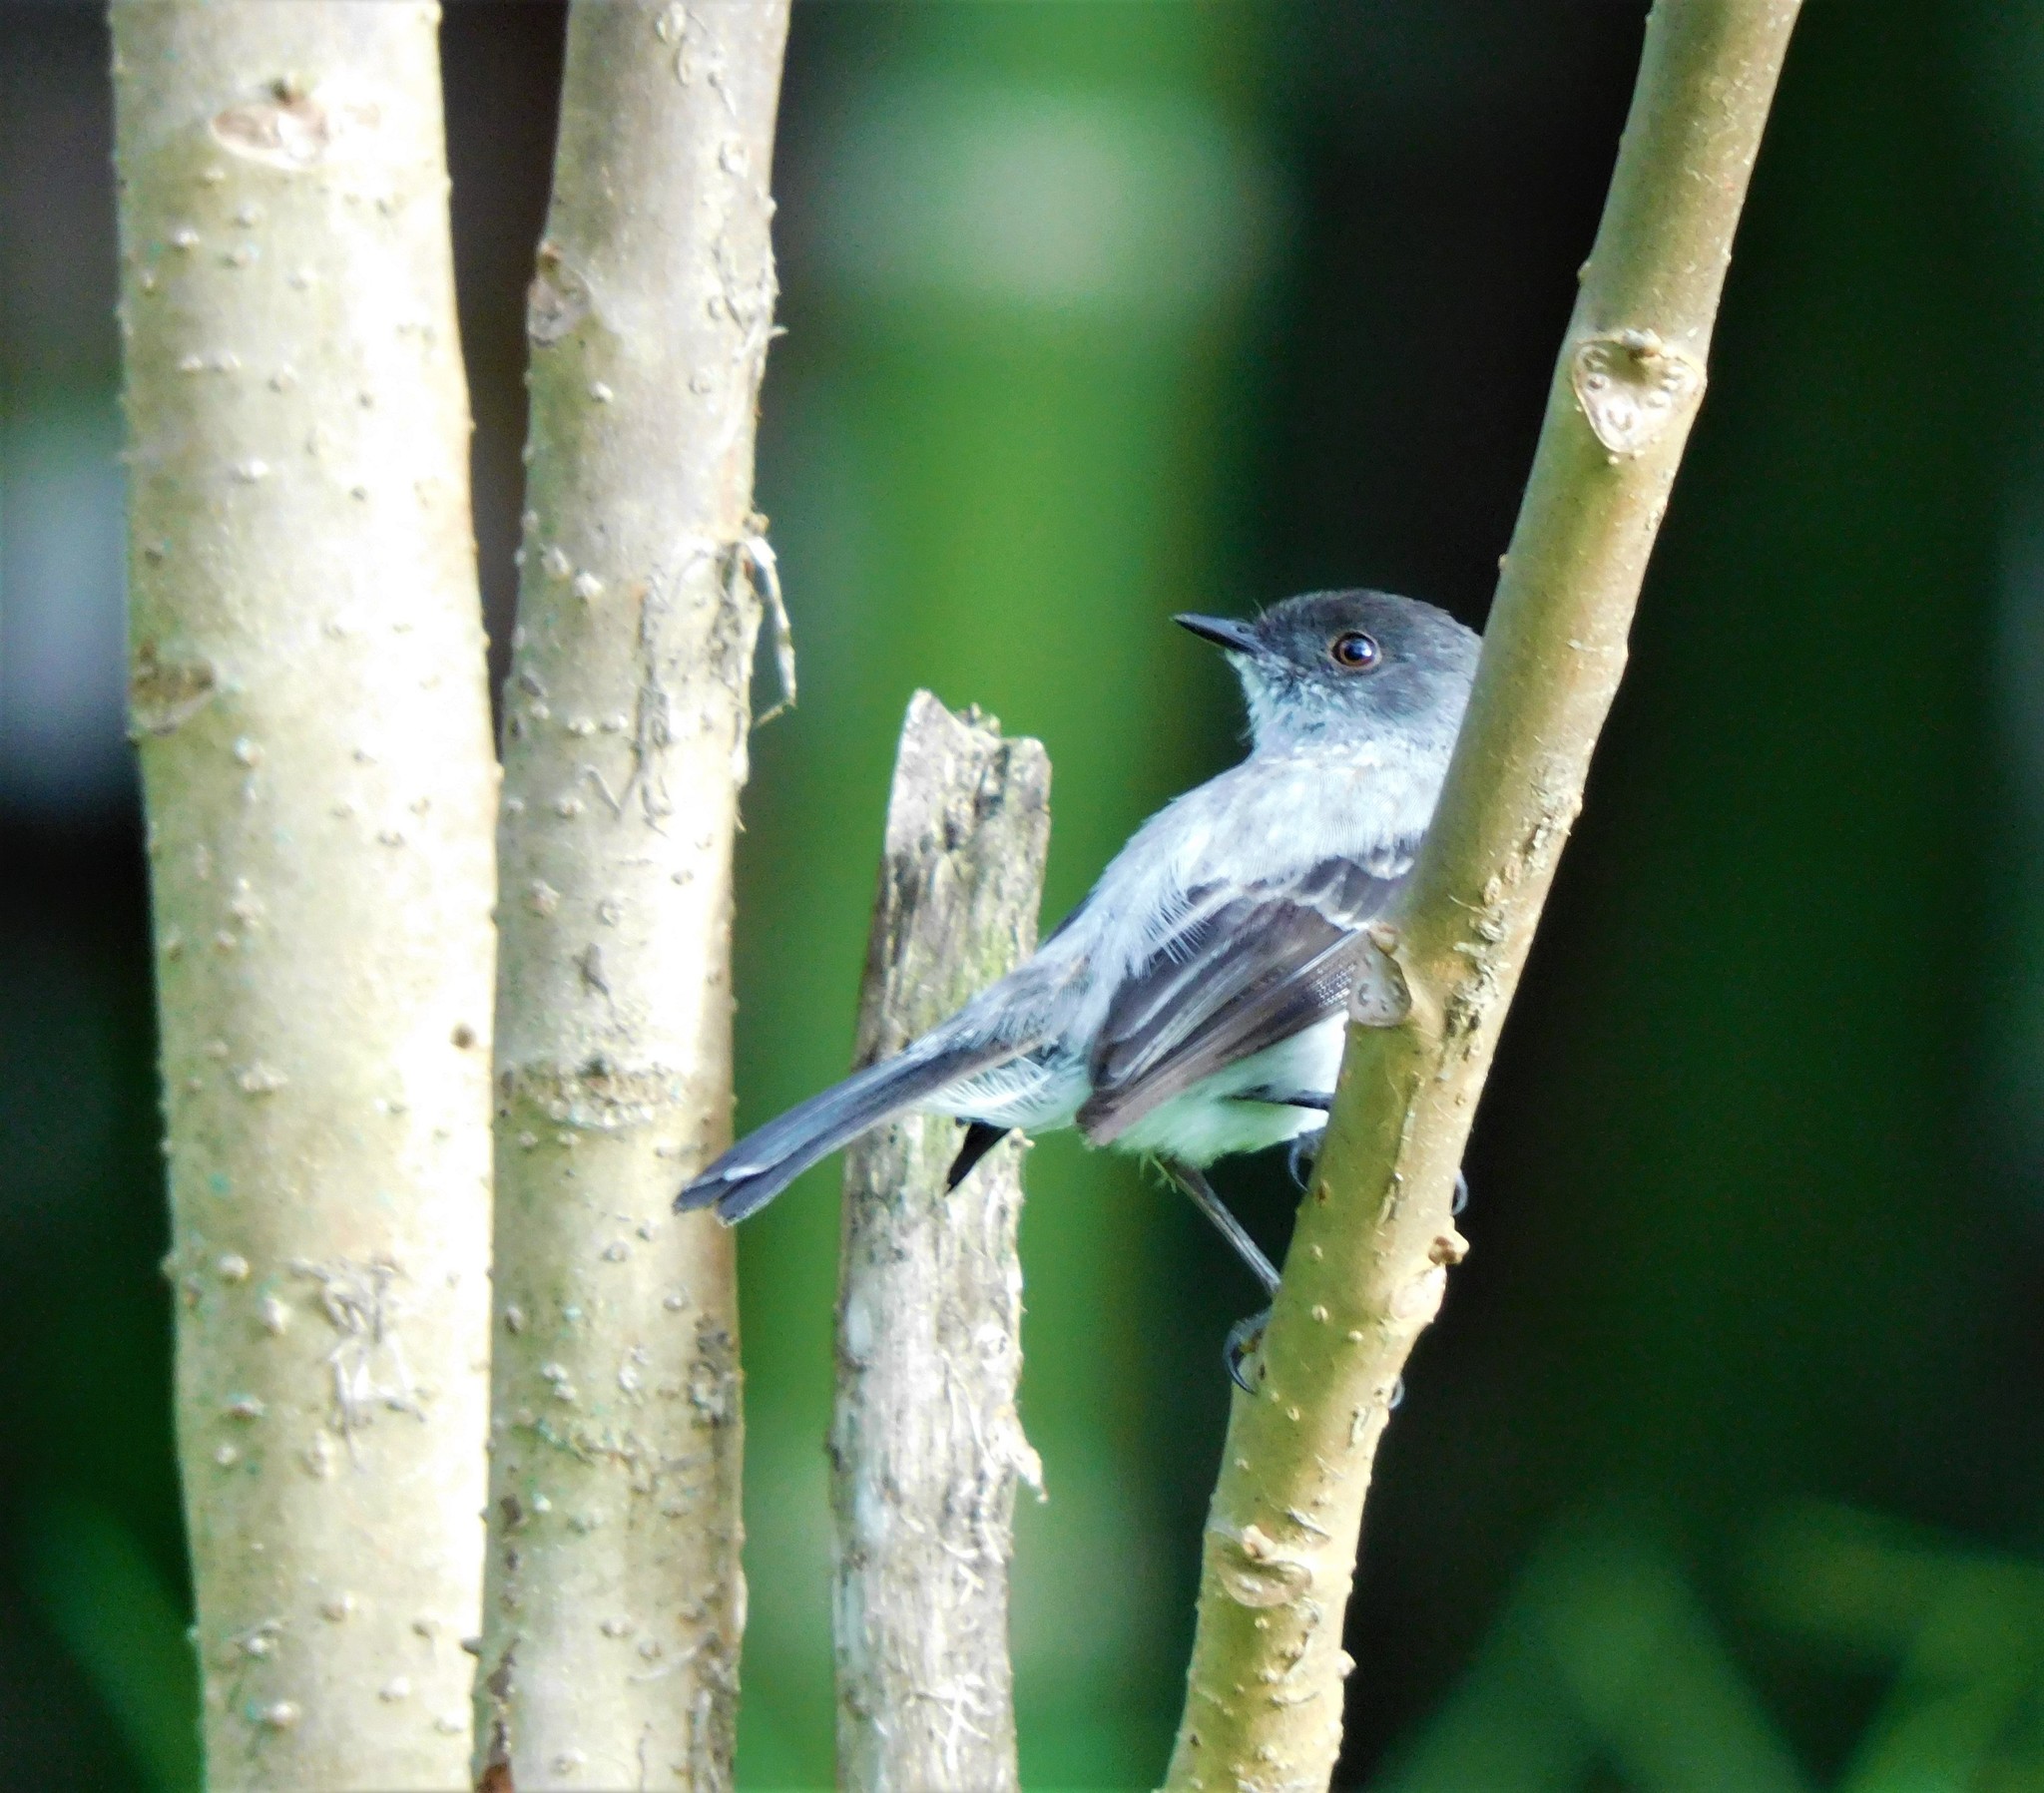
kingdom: Animalia
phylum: Chordata
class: Aves
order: Passeriformes
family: Tyrannidae
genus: Serpophaga
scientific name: Serpophaga cinerea
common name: Torrent tyrannulet
